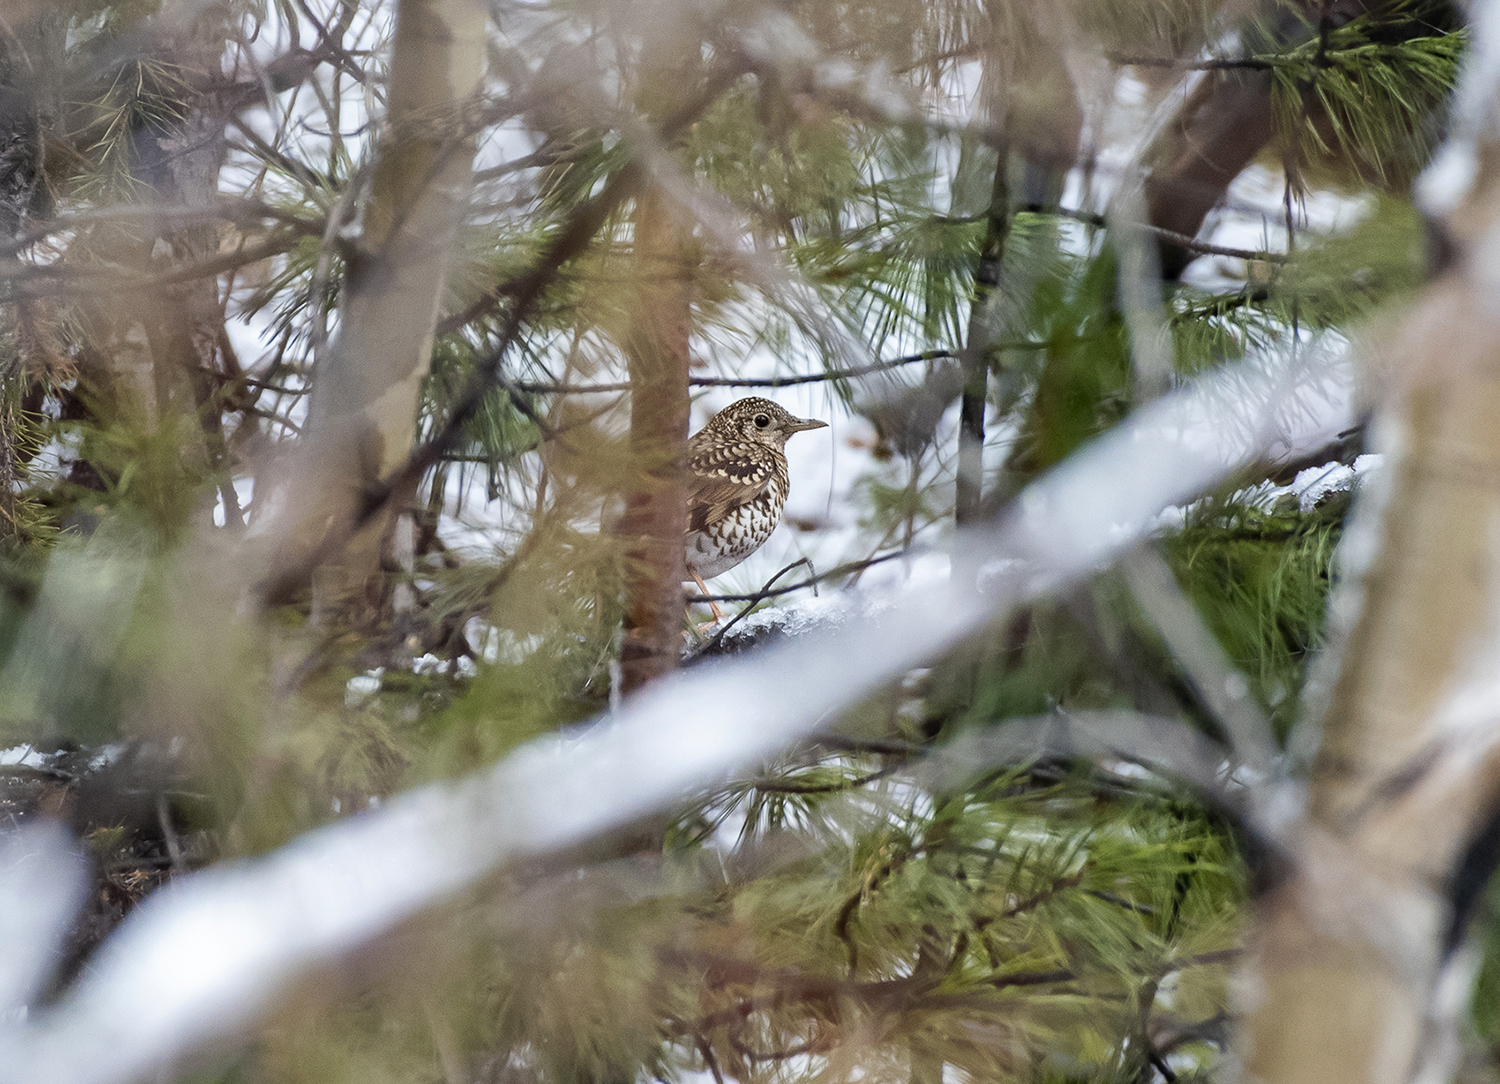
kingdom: Animalia
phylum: Chordata
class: Aves
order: Passeriformes
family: Turdidae
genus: Zoothera
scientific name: Zoothera aurea
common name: White's thrush
